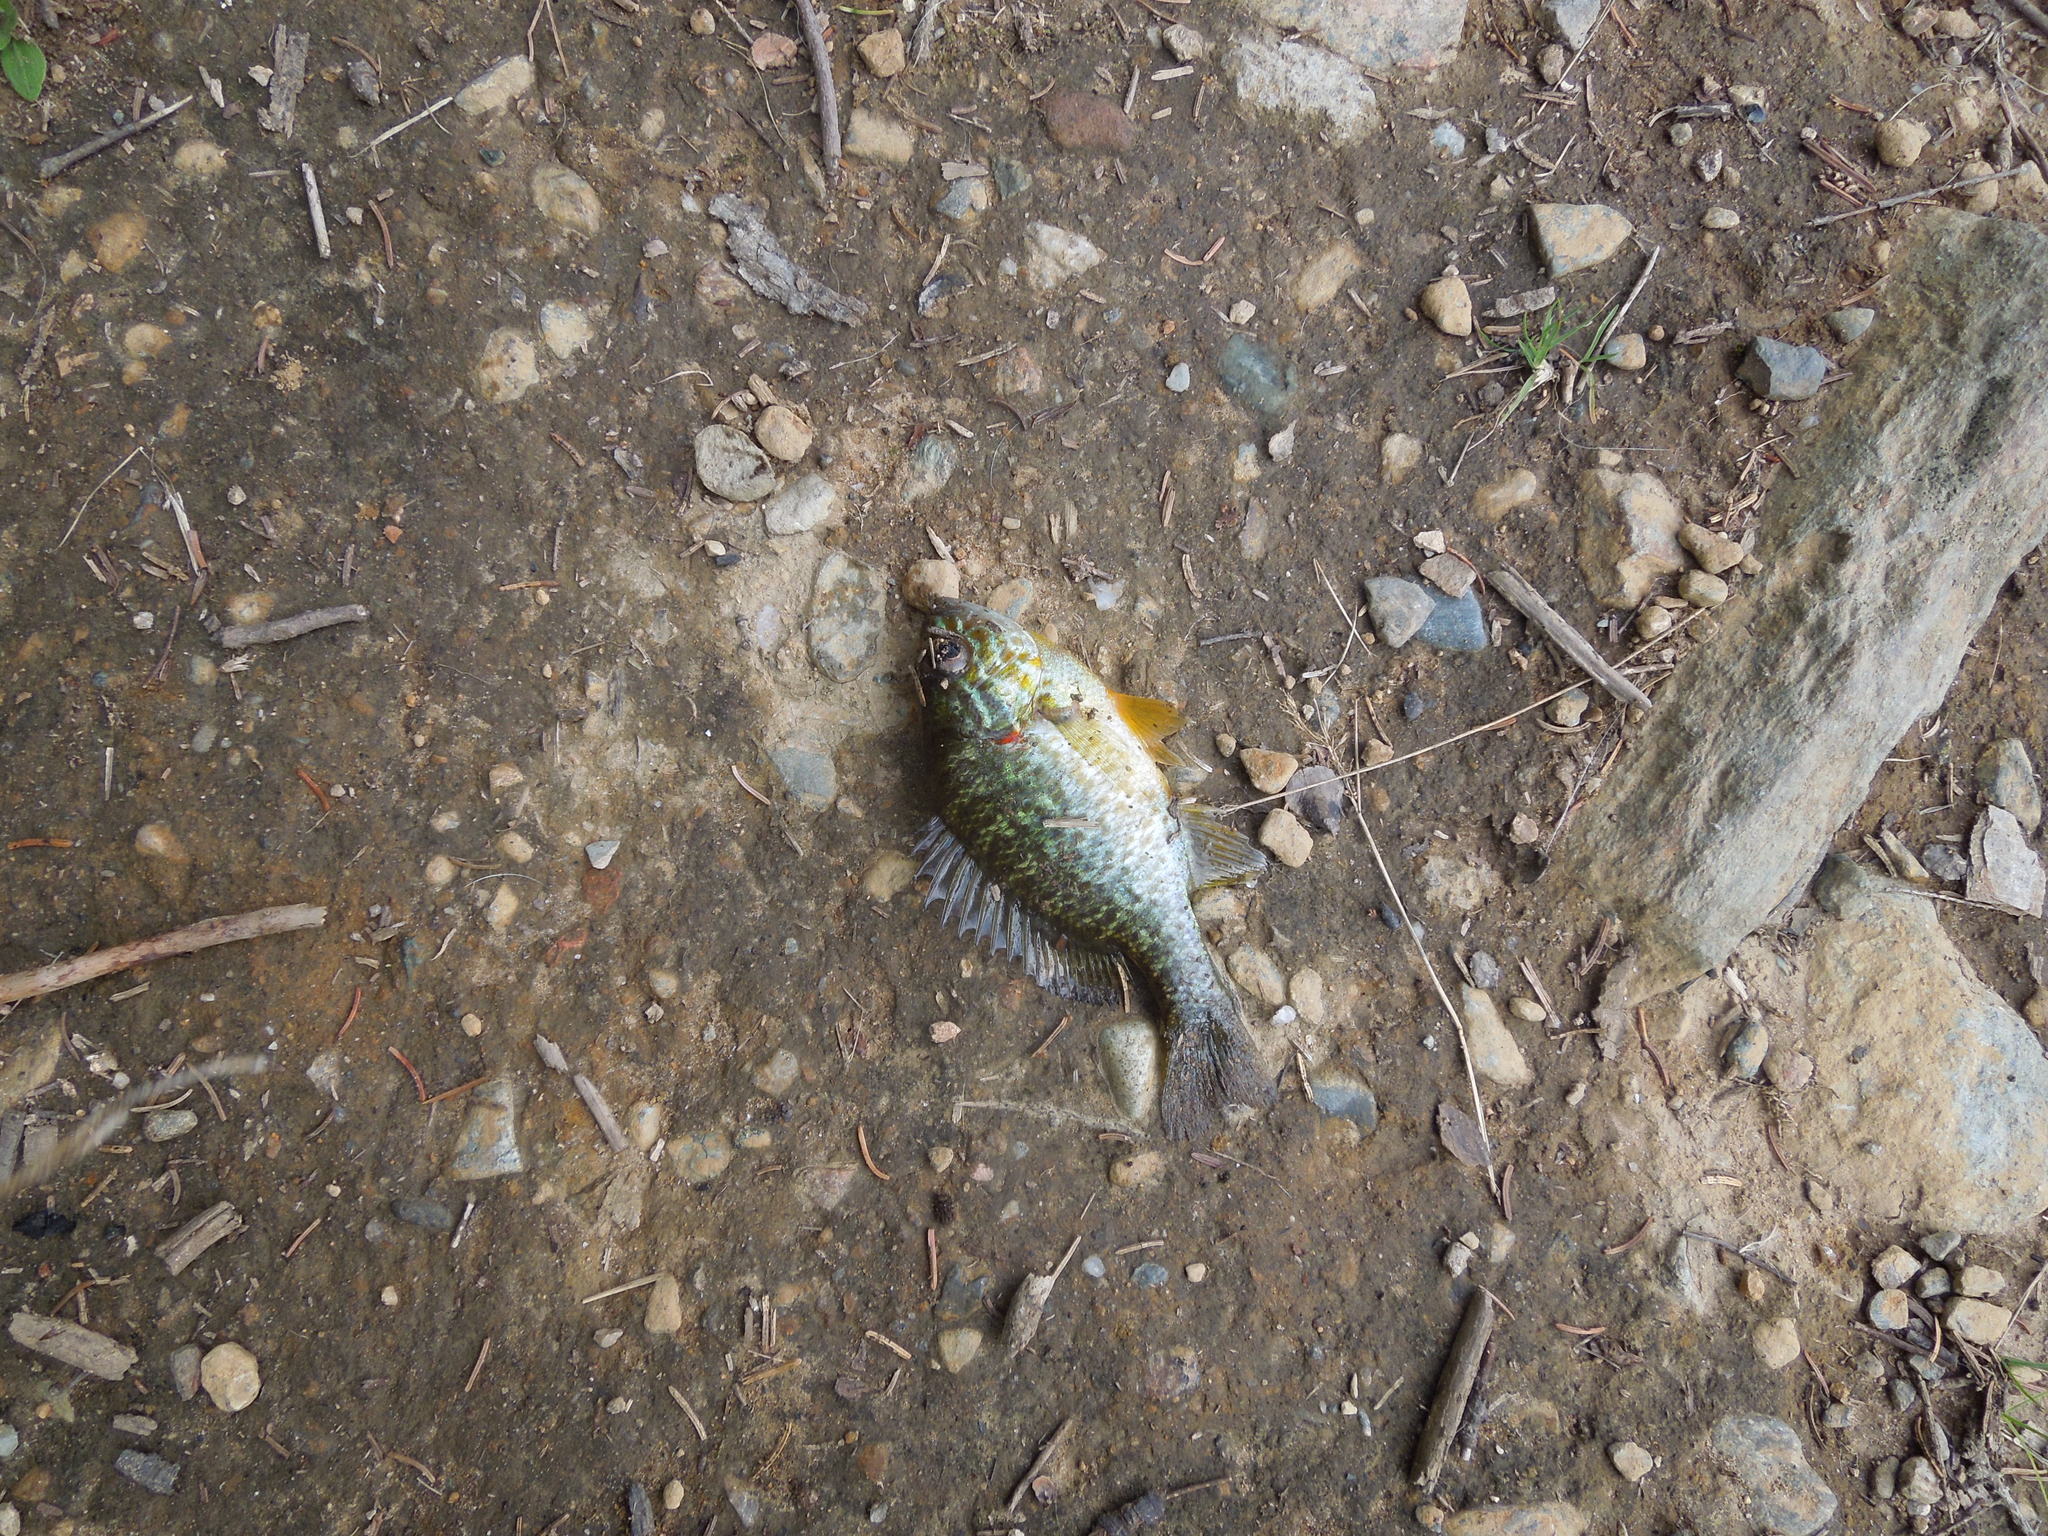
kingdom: Animalia
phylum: Chordata
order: Perciformes
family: Centrarchidae
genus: Lepomis
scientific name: Lepomis gibbosus
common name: Pumpkinseed
